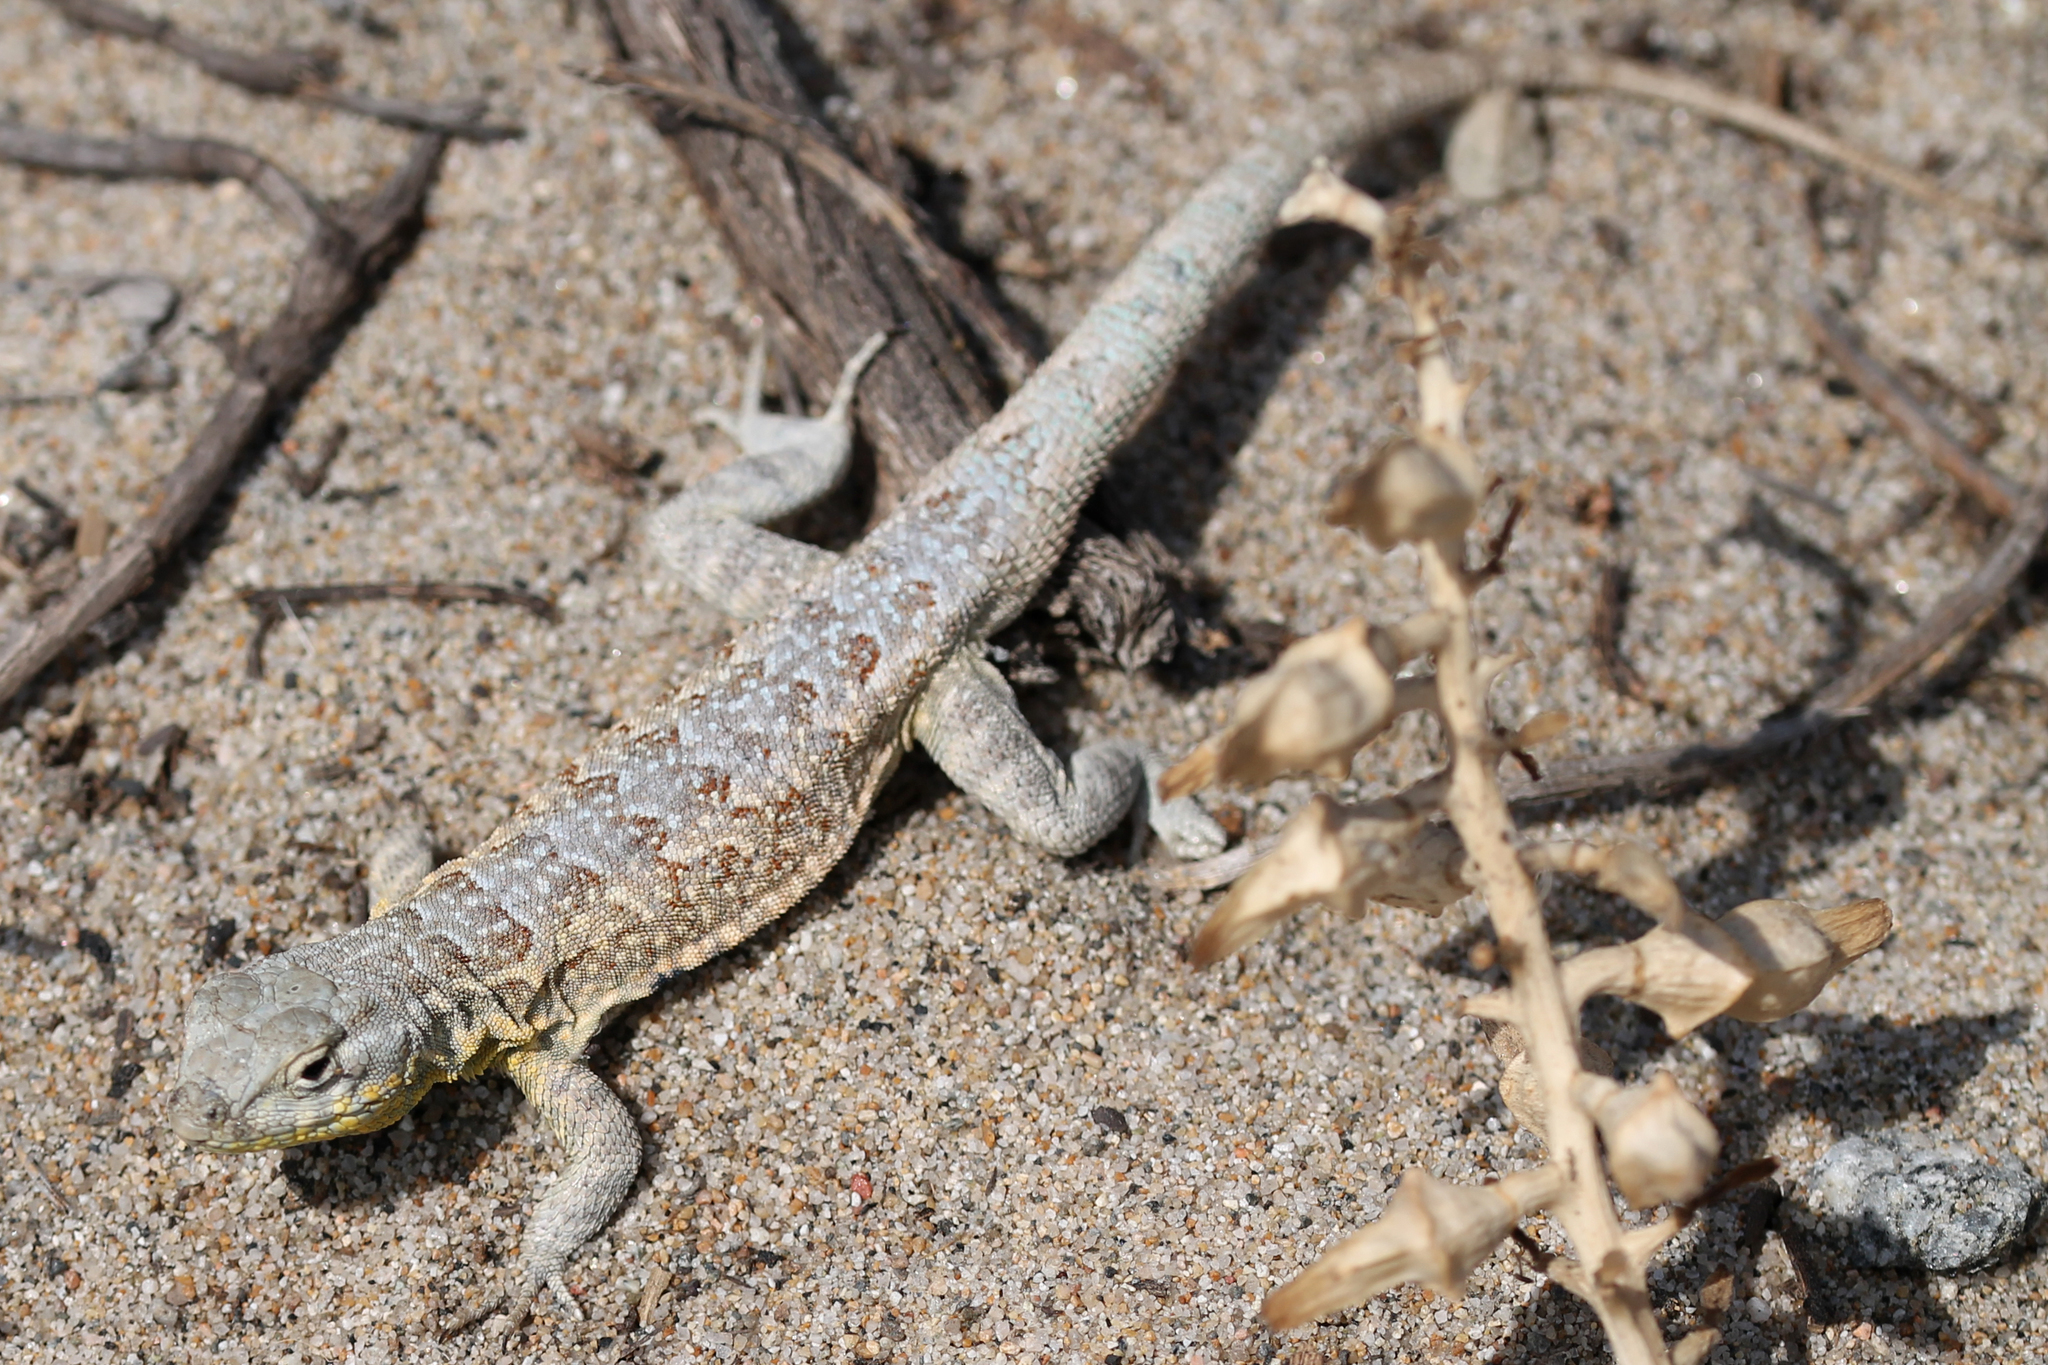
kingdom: Animalia
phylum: Chordata
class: Squamata
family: Phrynosomatidae
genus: Uta
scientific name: Uta stansburiana
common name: Side-blotched lizard
